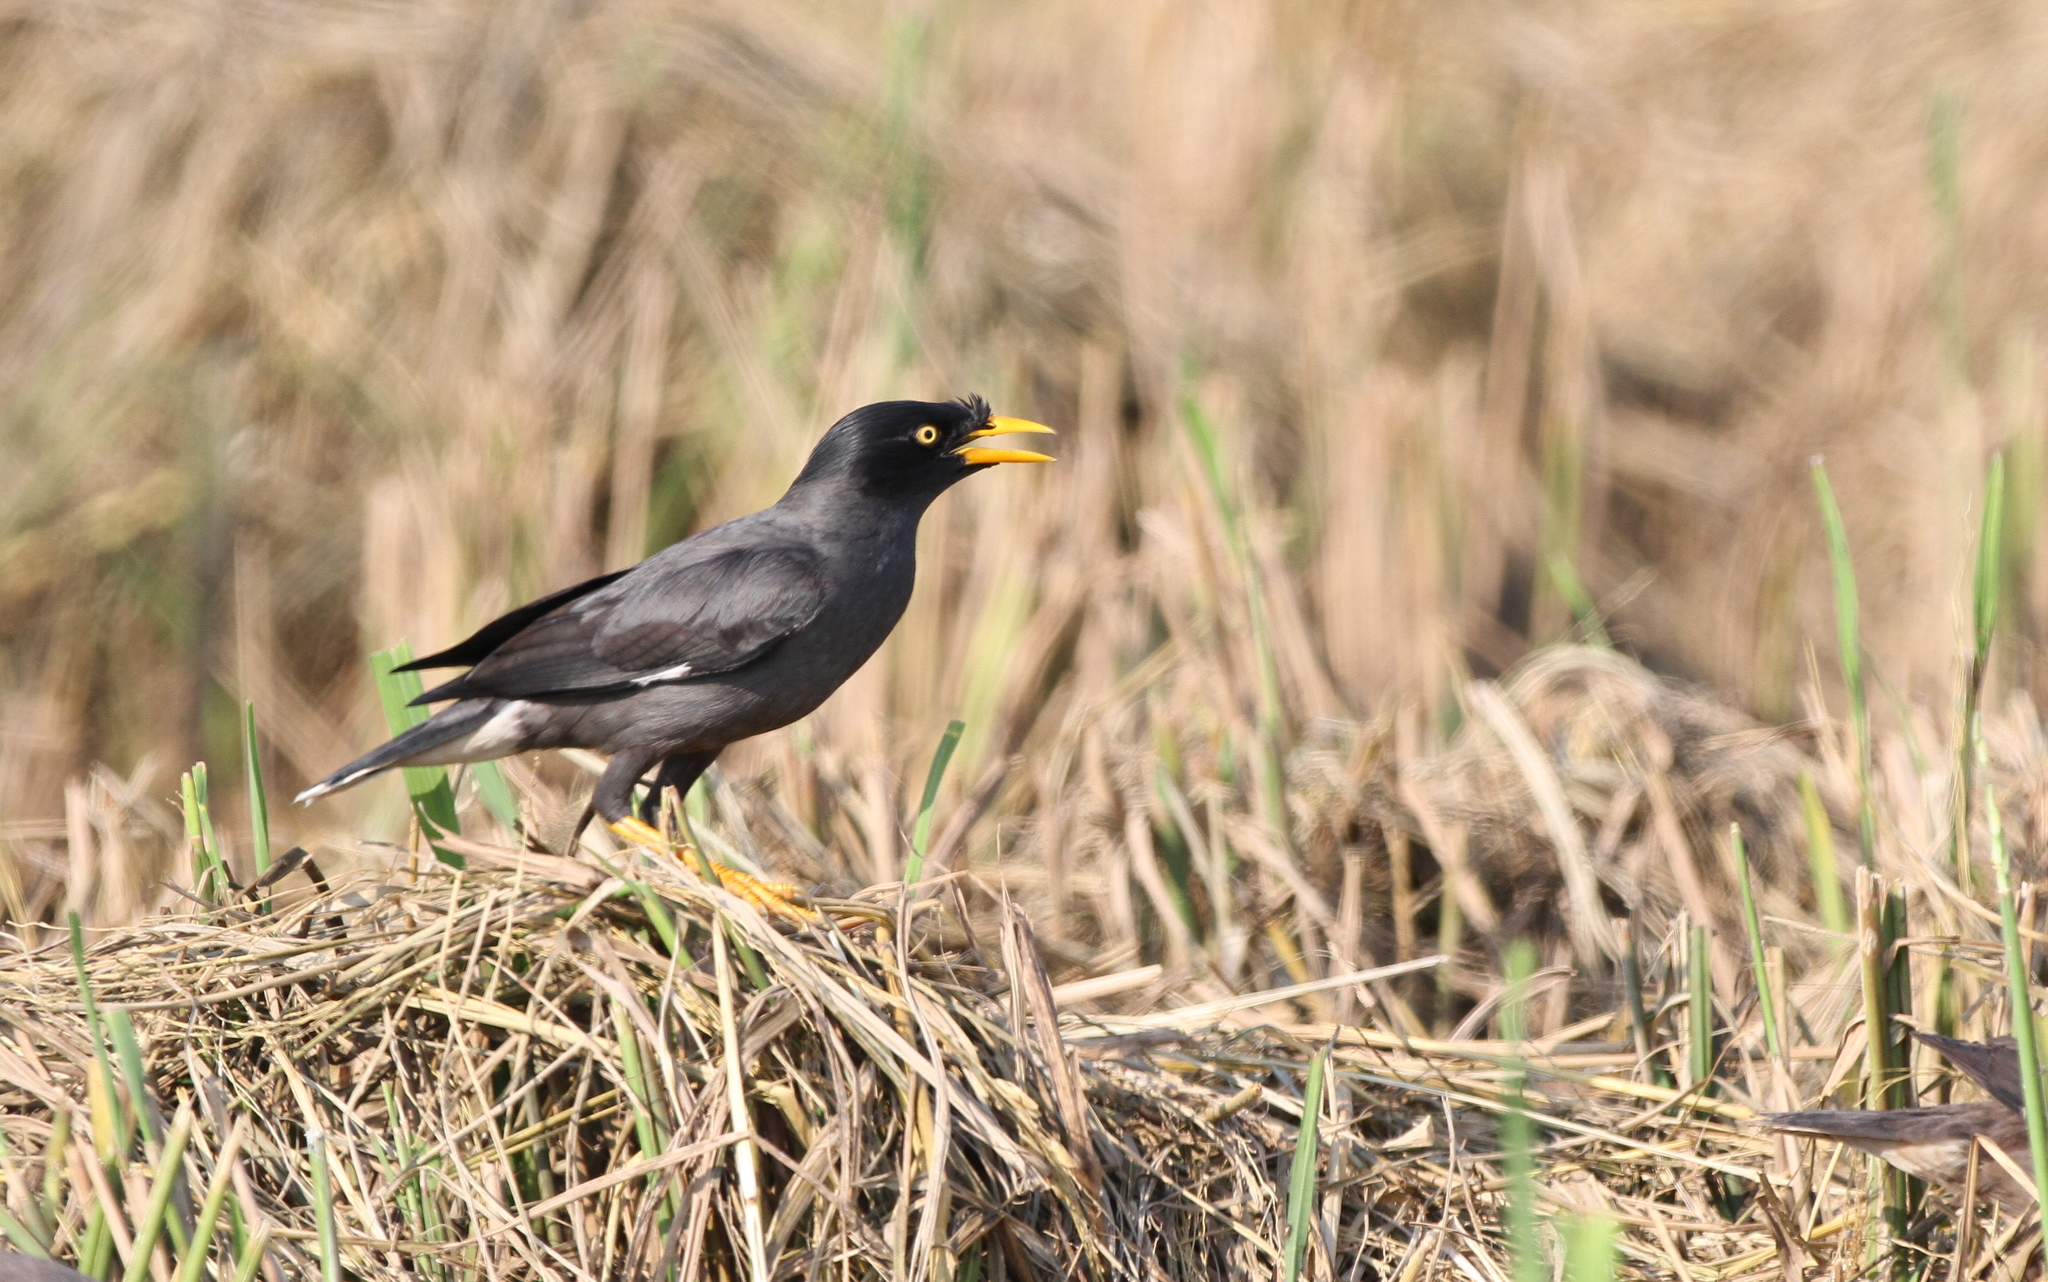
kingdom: Animalia
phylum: Chordata
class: Aves
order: Passeriformes
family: Sturnidae
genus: Acridotheres
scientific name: Acridotheres javanicus
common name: Javan myna
